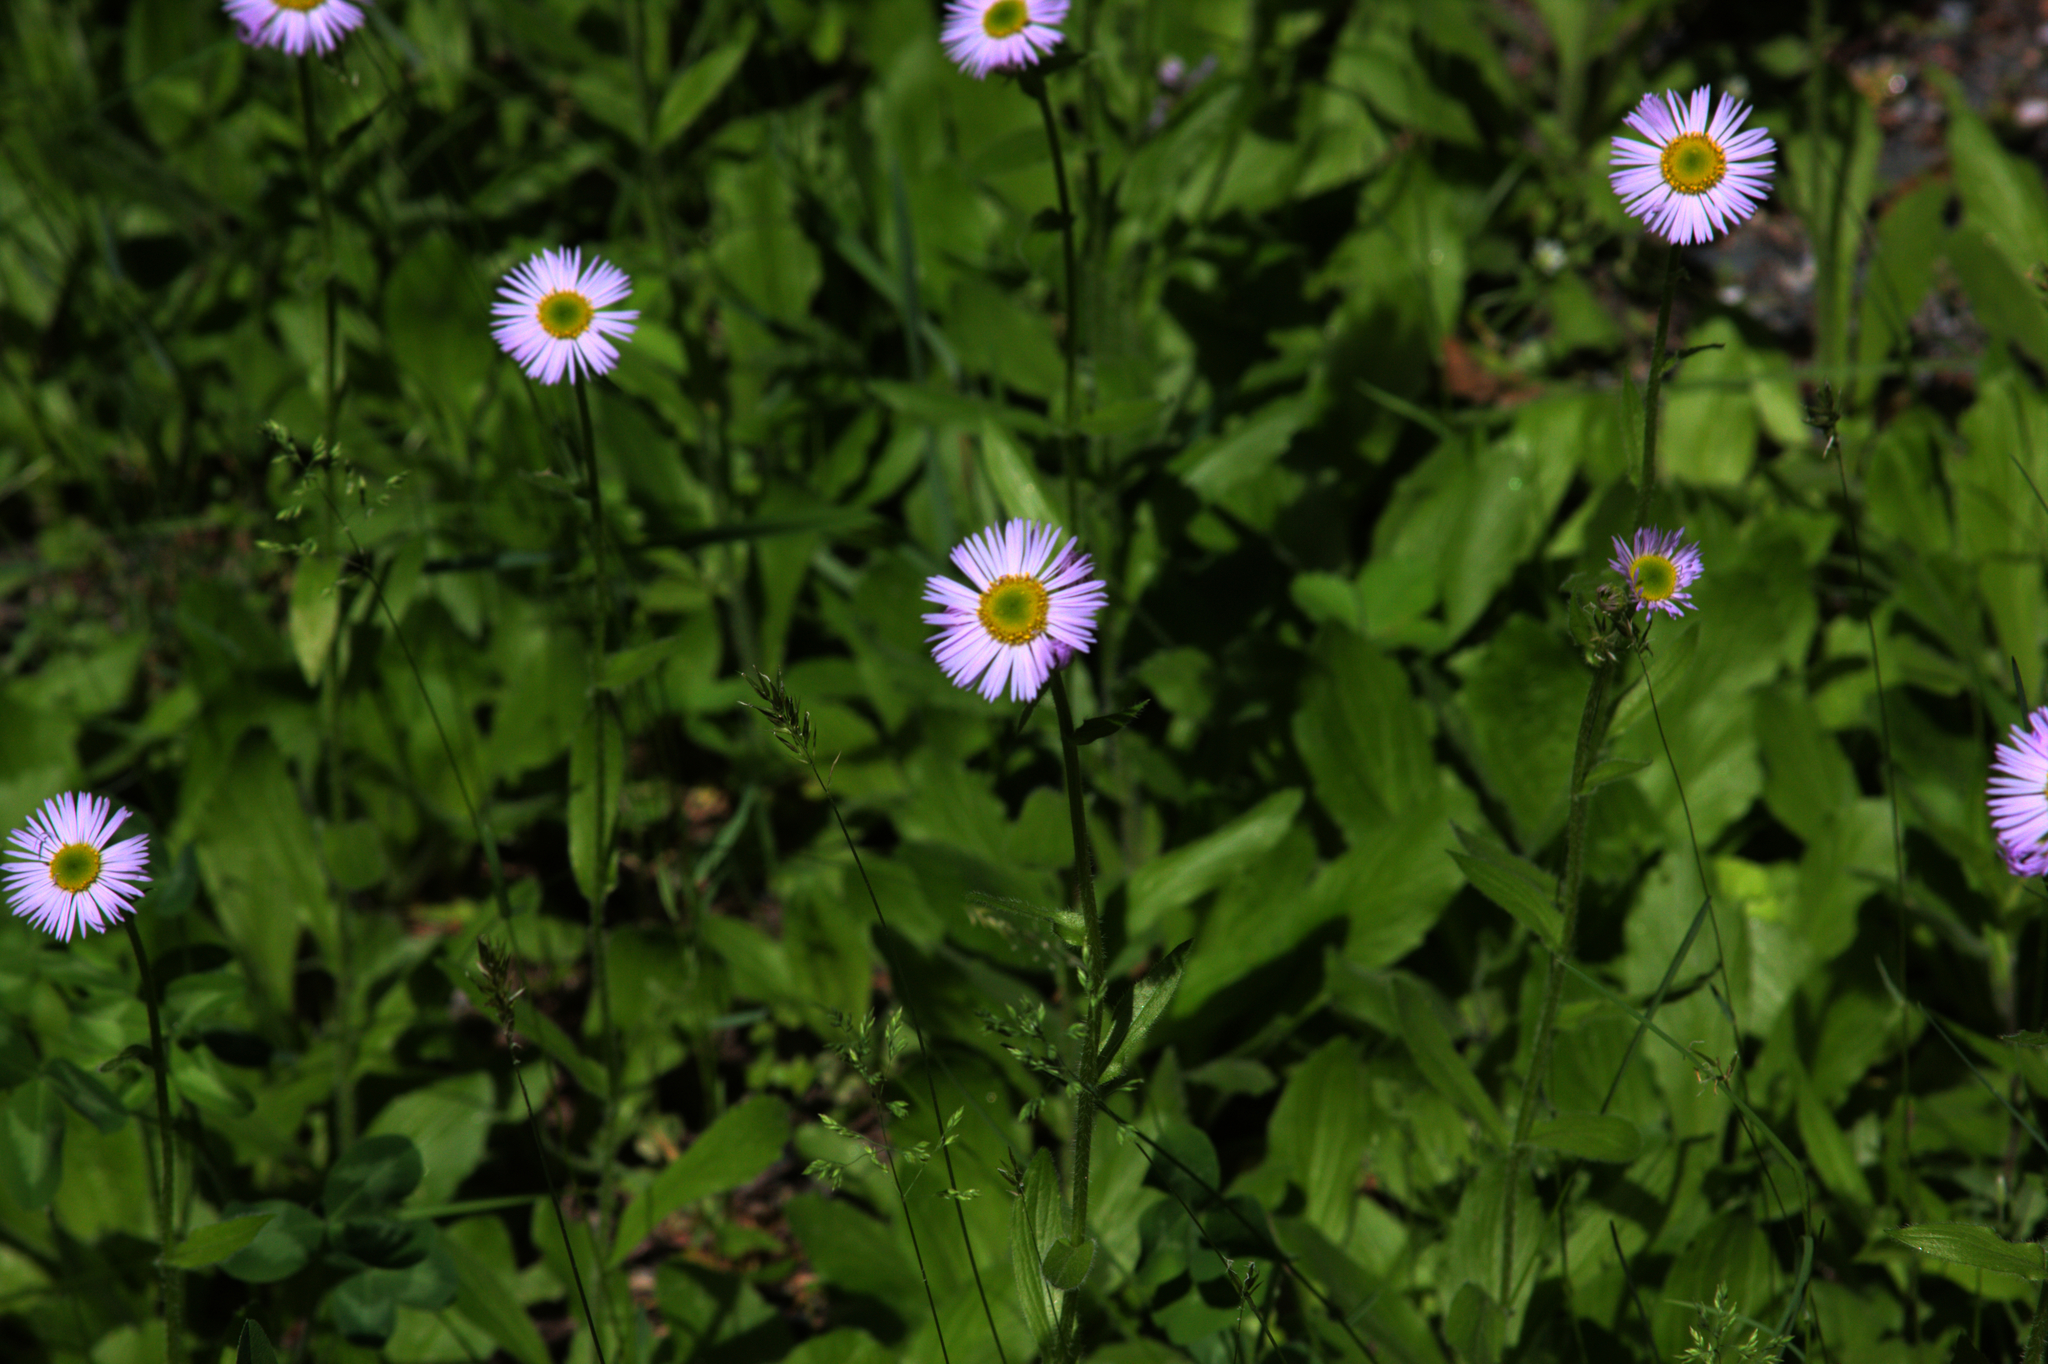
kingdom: Plantae
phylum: Tracheophyta
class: Magnoliopsida
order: Asterales
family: Asteraceae
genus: Erigeron
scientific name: Erigeron pulchellus
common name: Hairy fleabane
